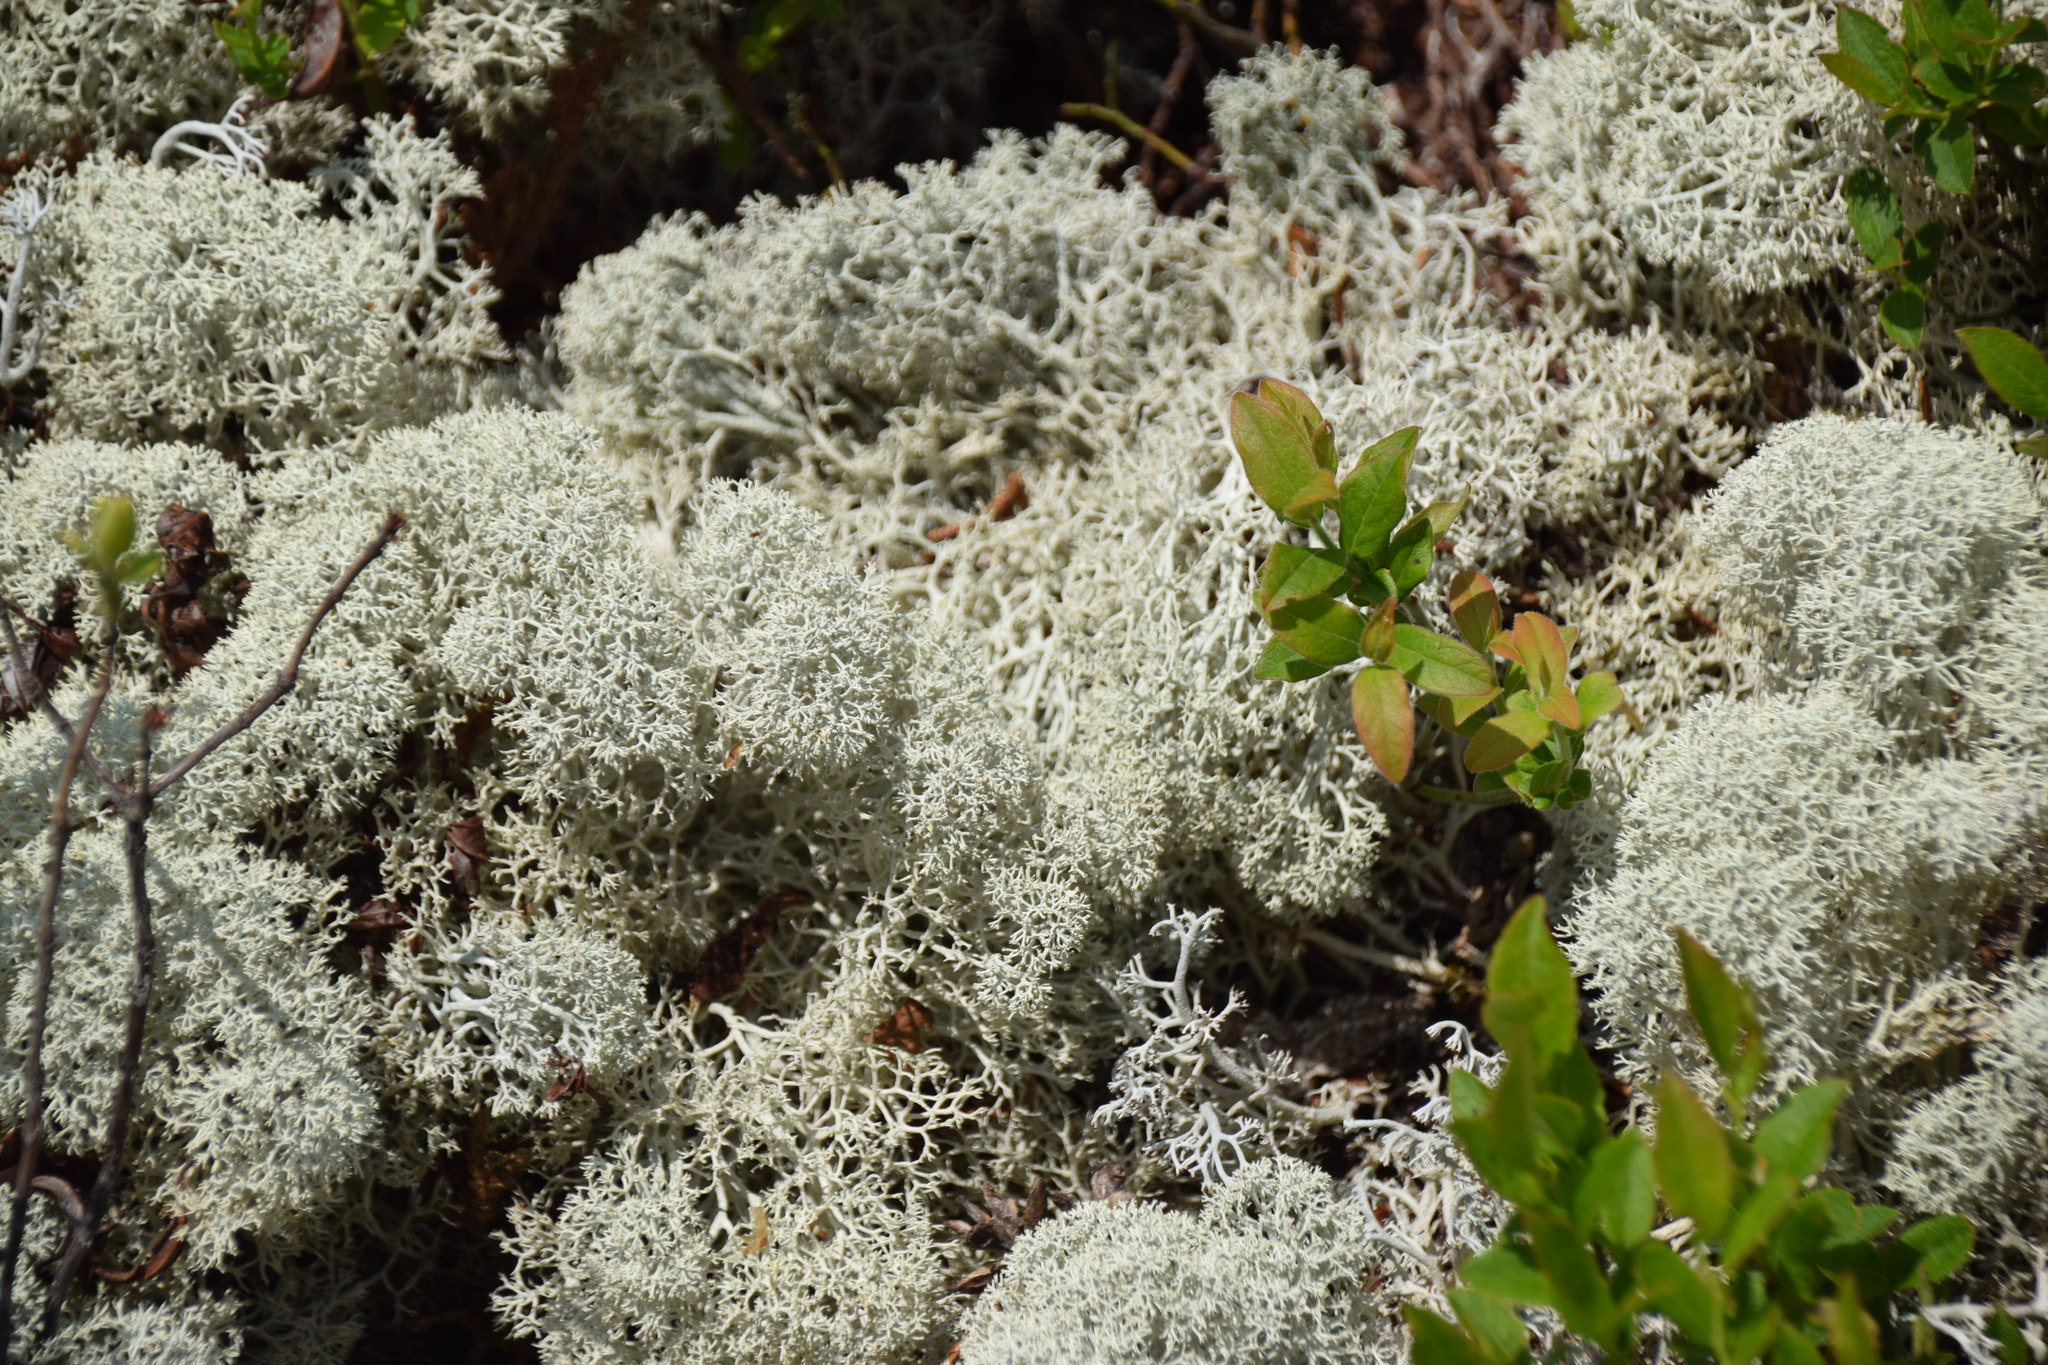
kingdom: Fungi
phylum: Ascomycota
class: Lecanoromycetes
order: Lecanorales
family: Cladoniaceae
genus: Cladonia
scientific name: Cladonia stellaris
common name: Star-tipped reindeer lichen
